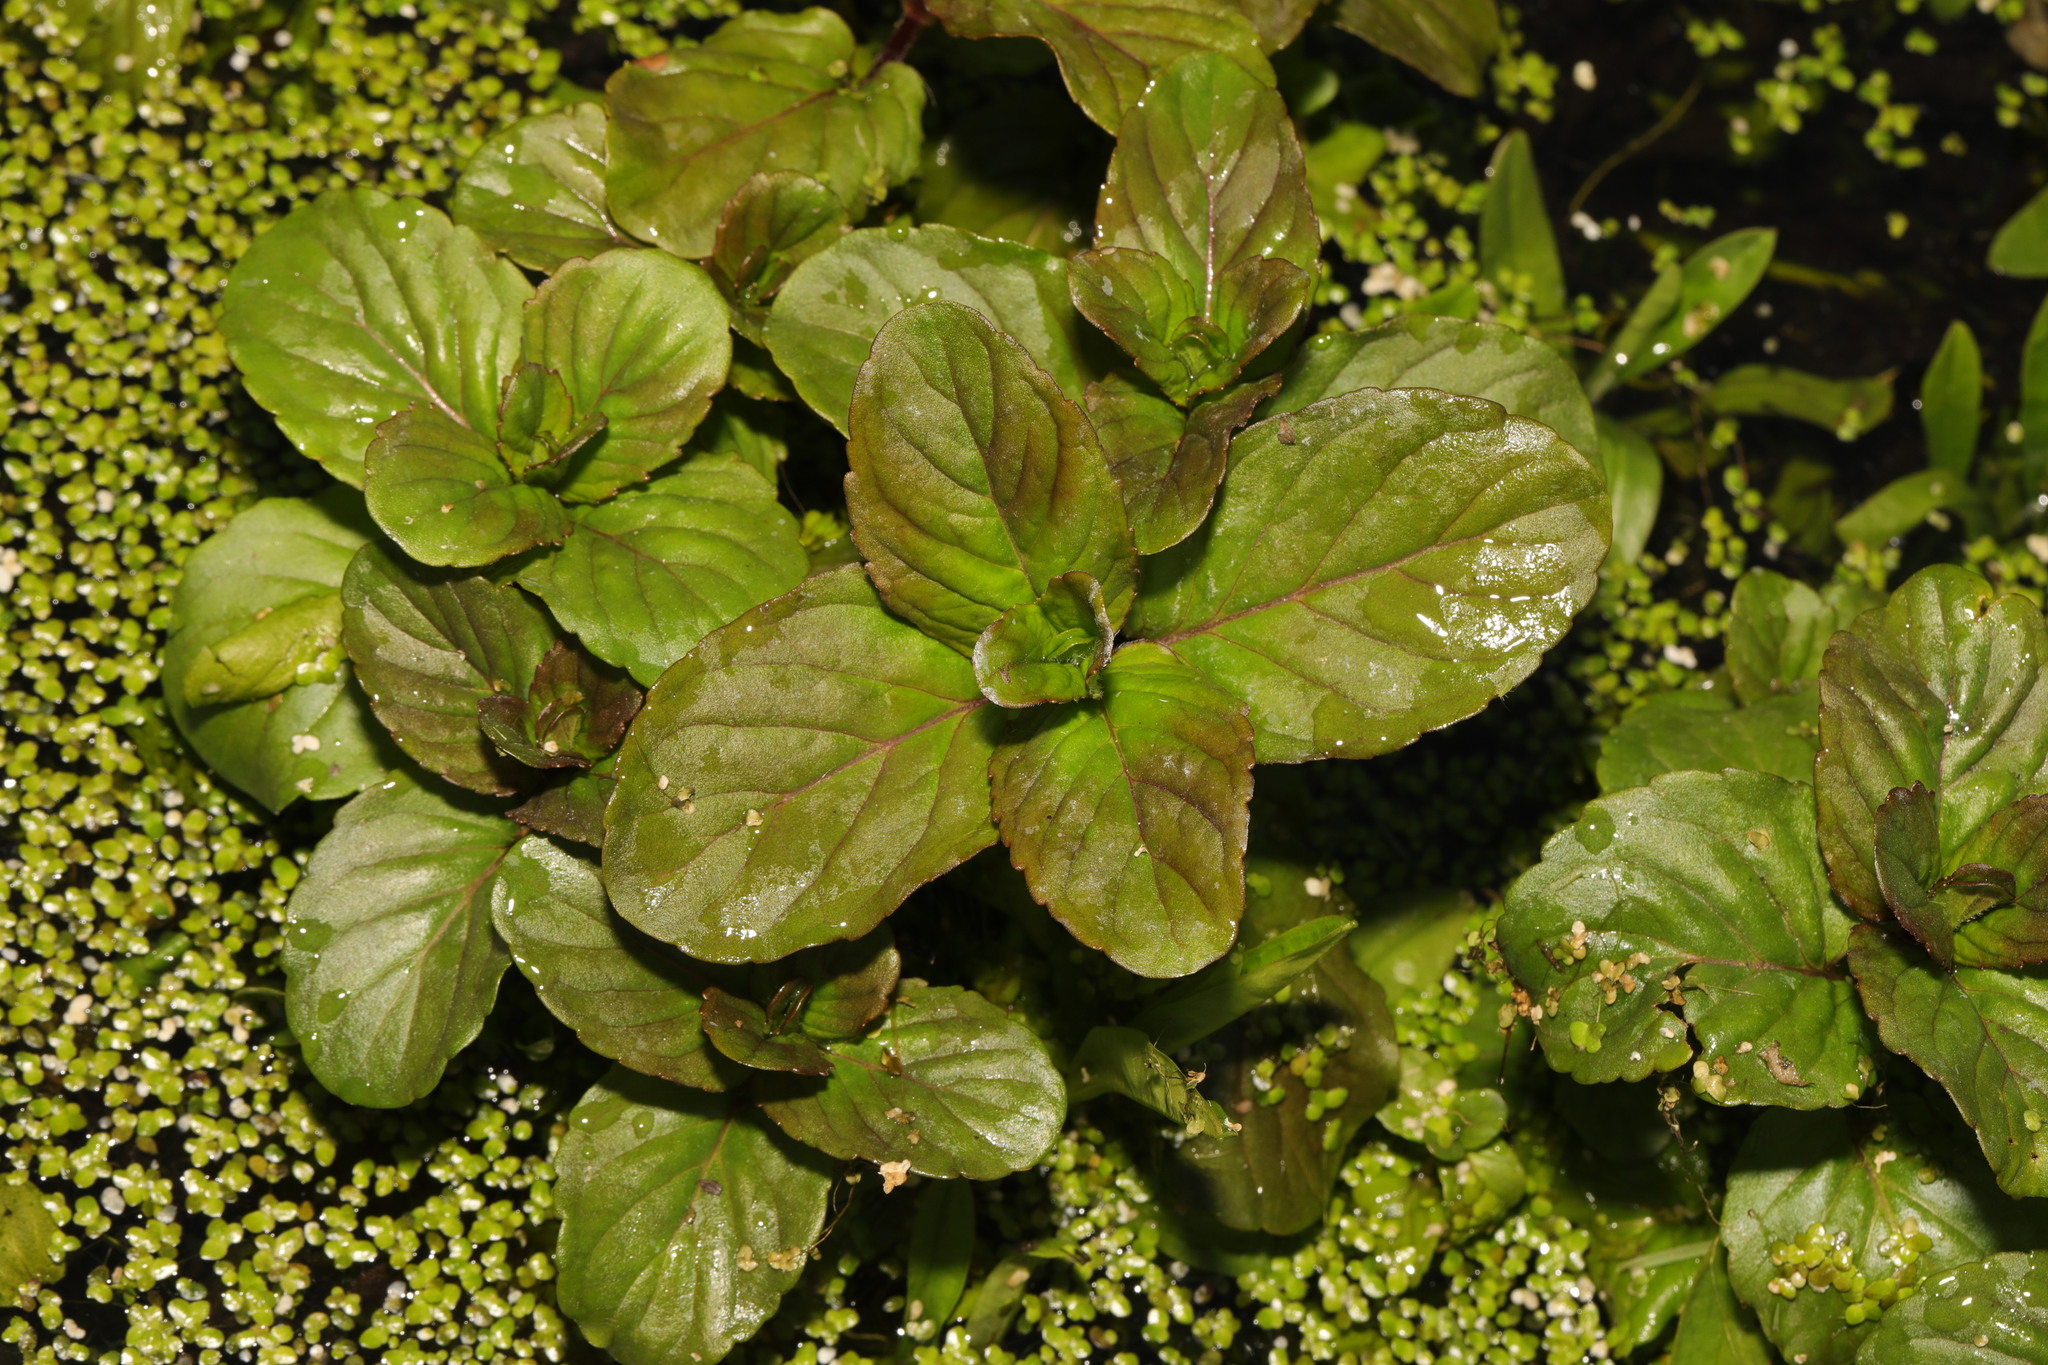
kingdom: Plantae
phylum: Tracheophyta
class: Magnoliopsida
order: Lamiales
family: Lamiaceae
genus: Mentha
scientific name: Mentha aquatica
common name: Water mint
